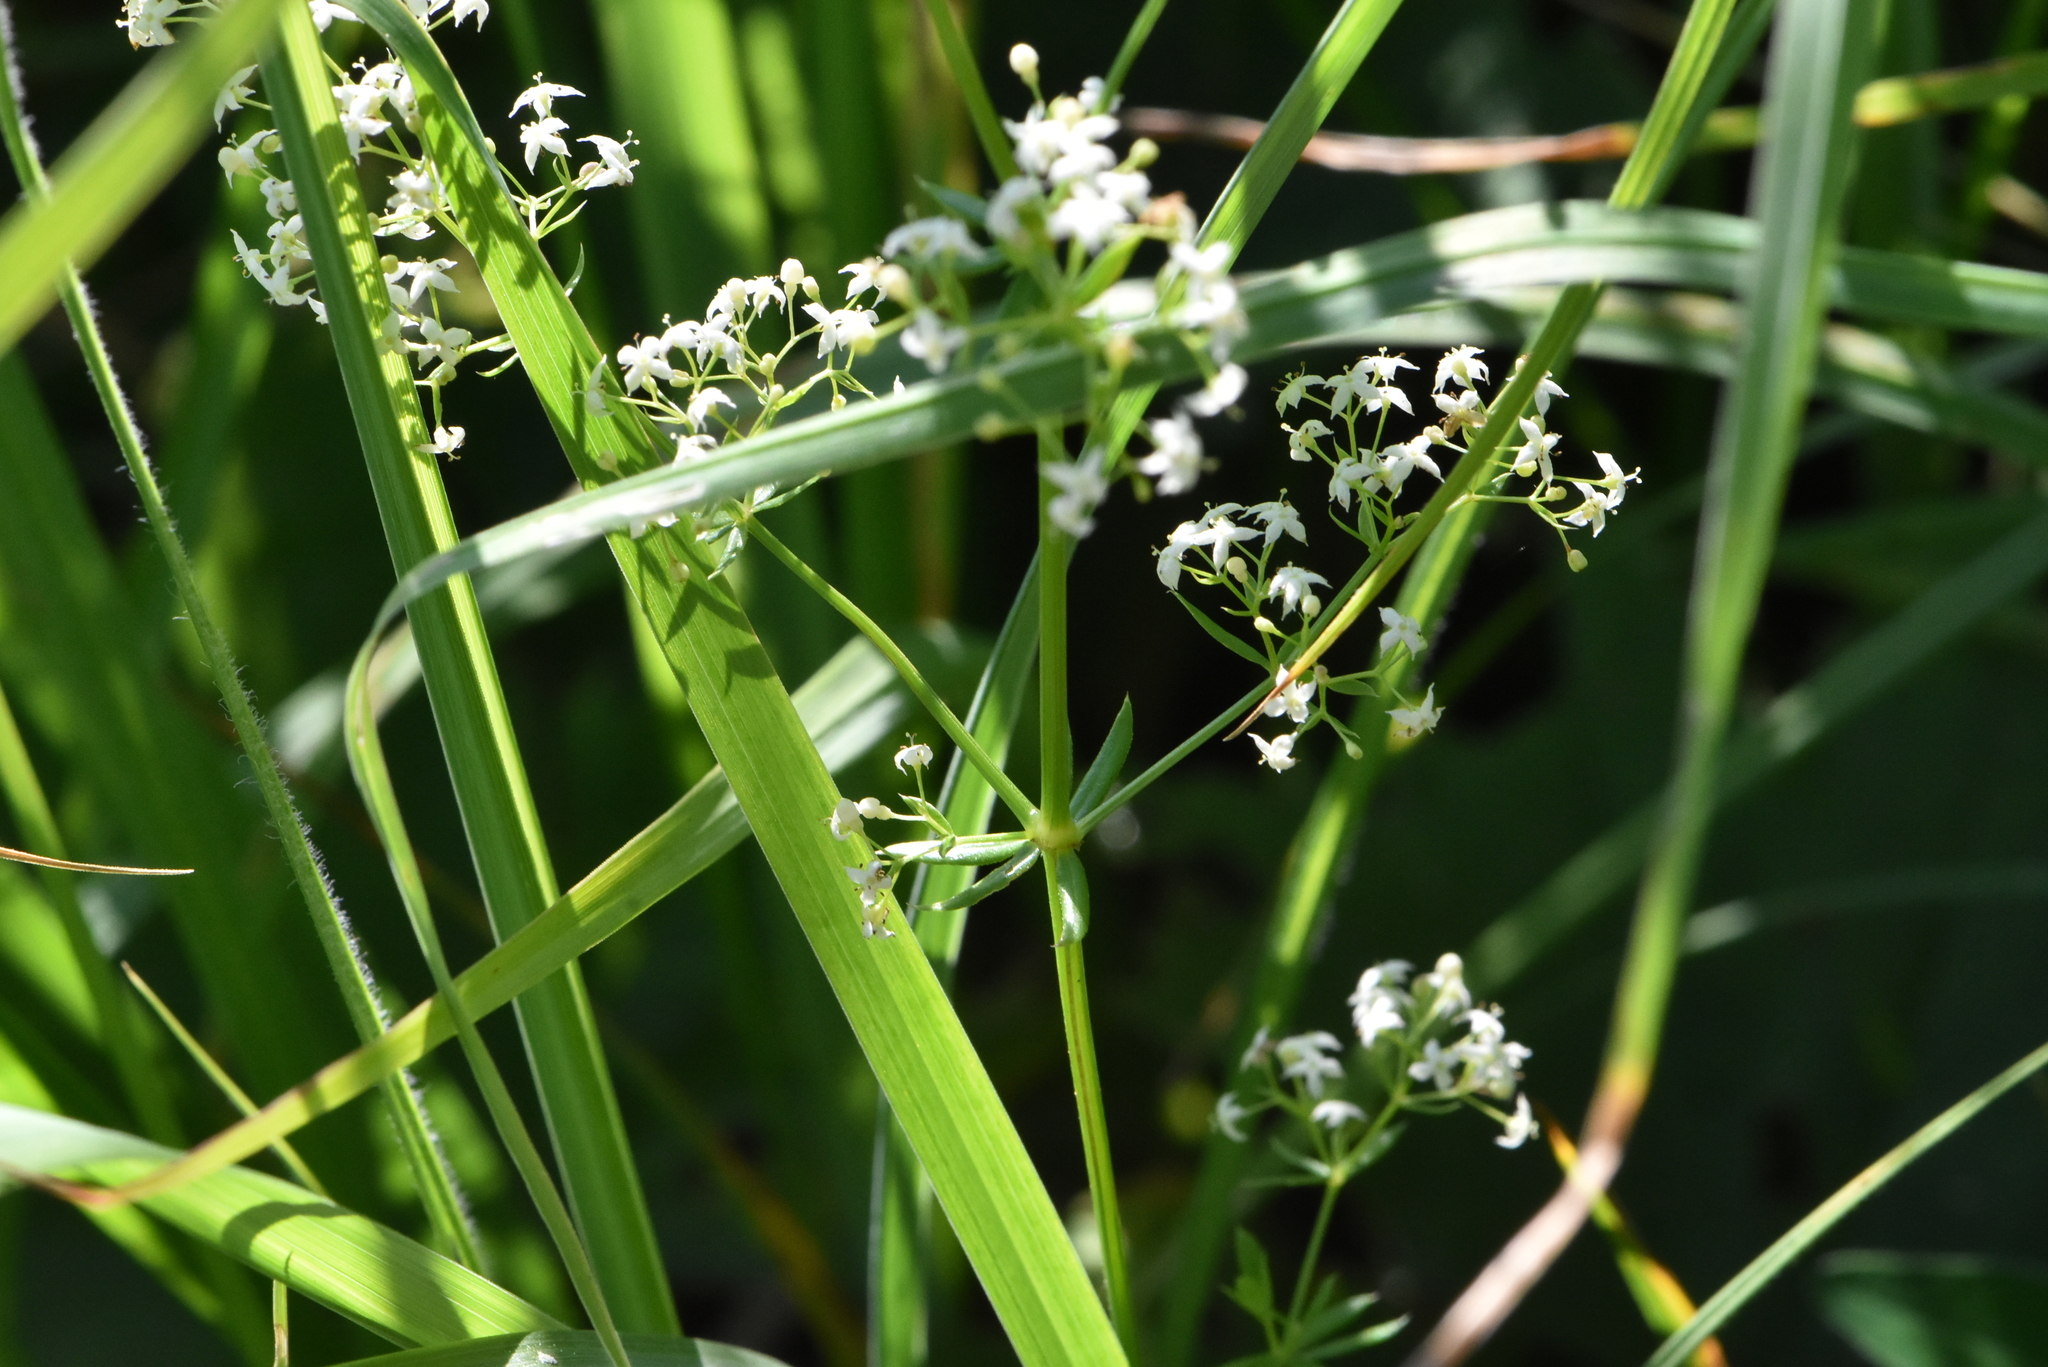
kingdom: Plantae
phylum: Tracheophyta
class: Magnoliopsida
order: Gentianales
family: Rubiaceae
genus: Galium
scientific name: Galium mollugo
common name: Hedge bedstraw
